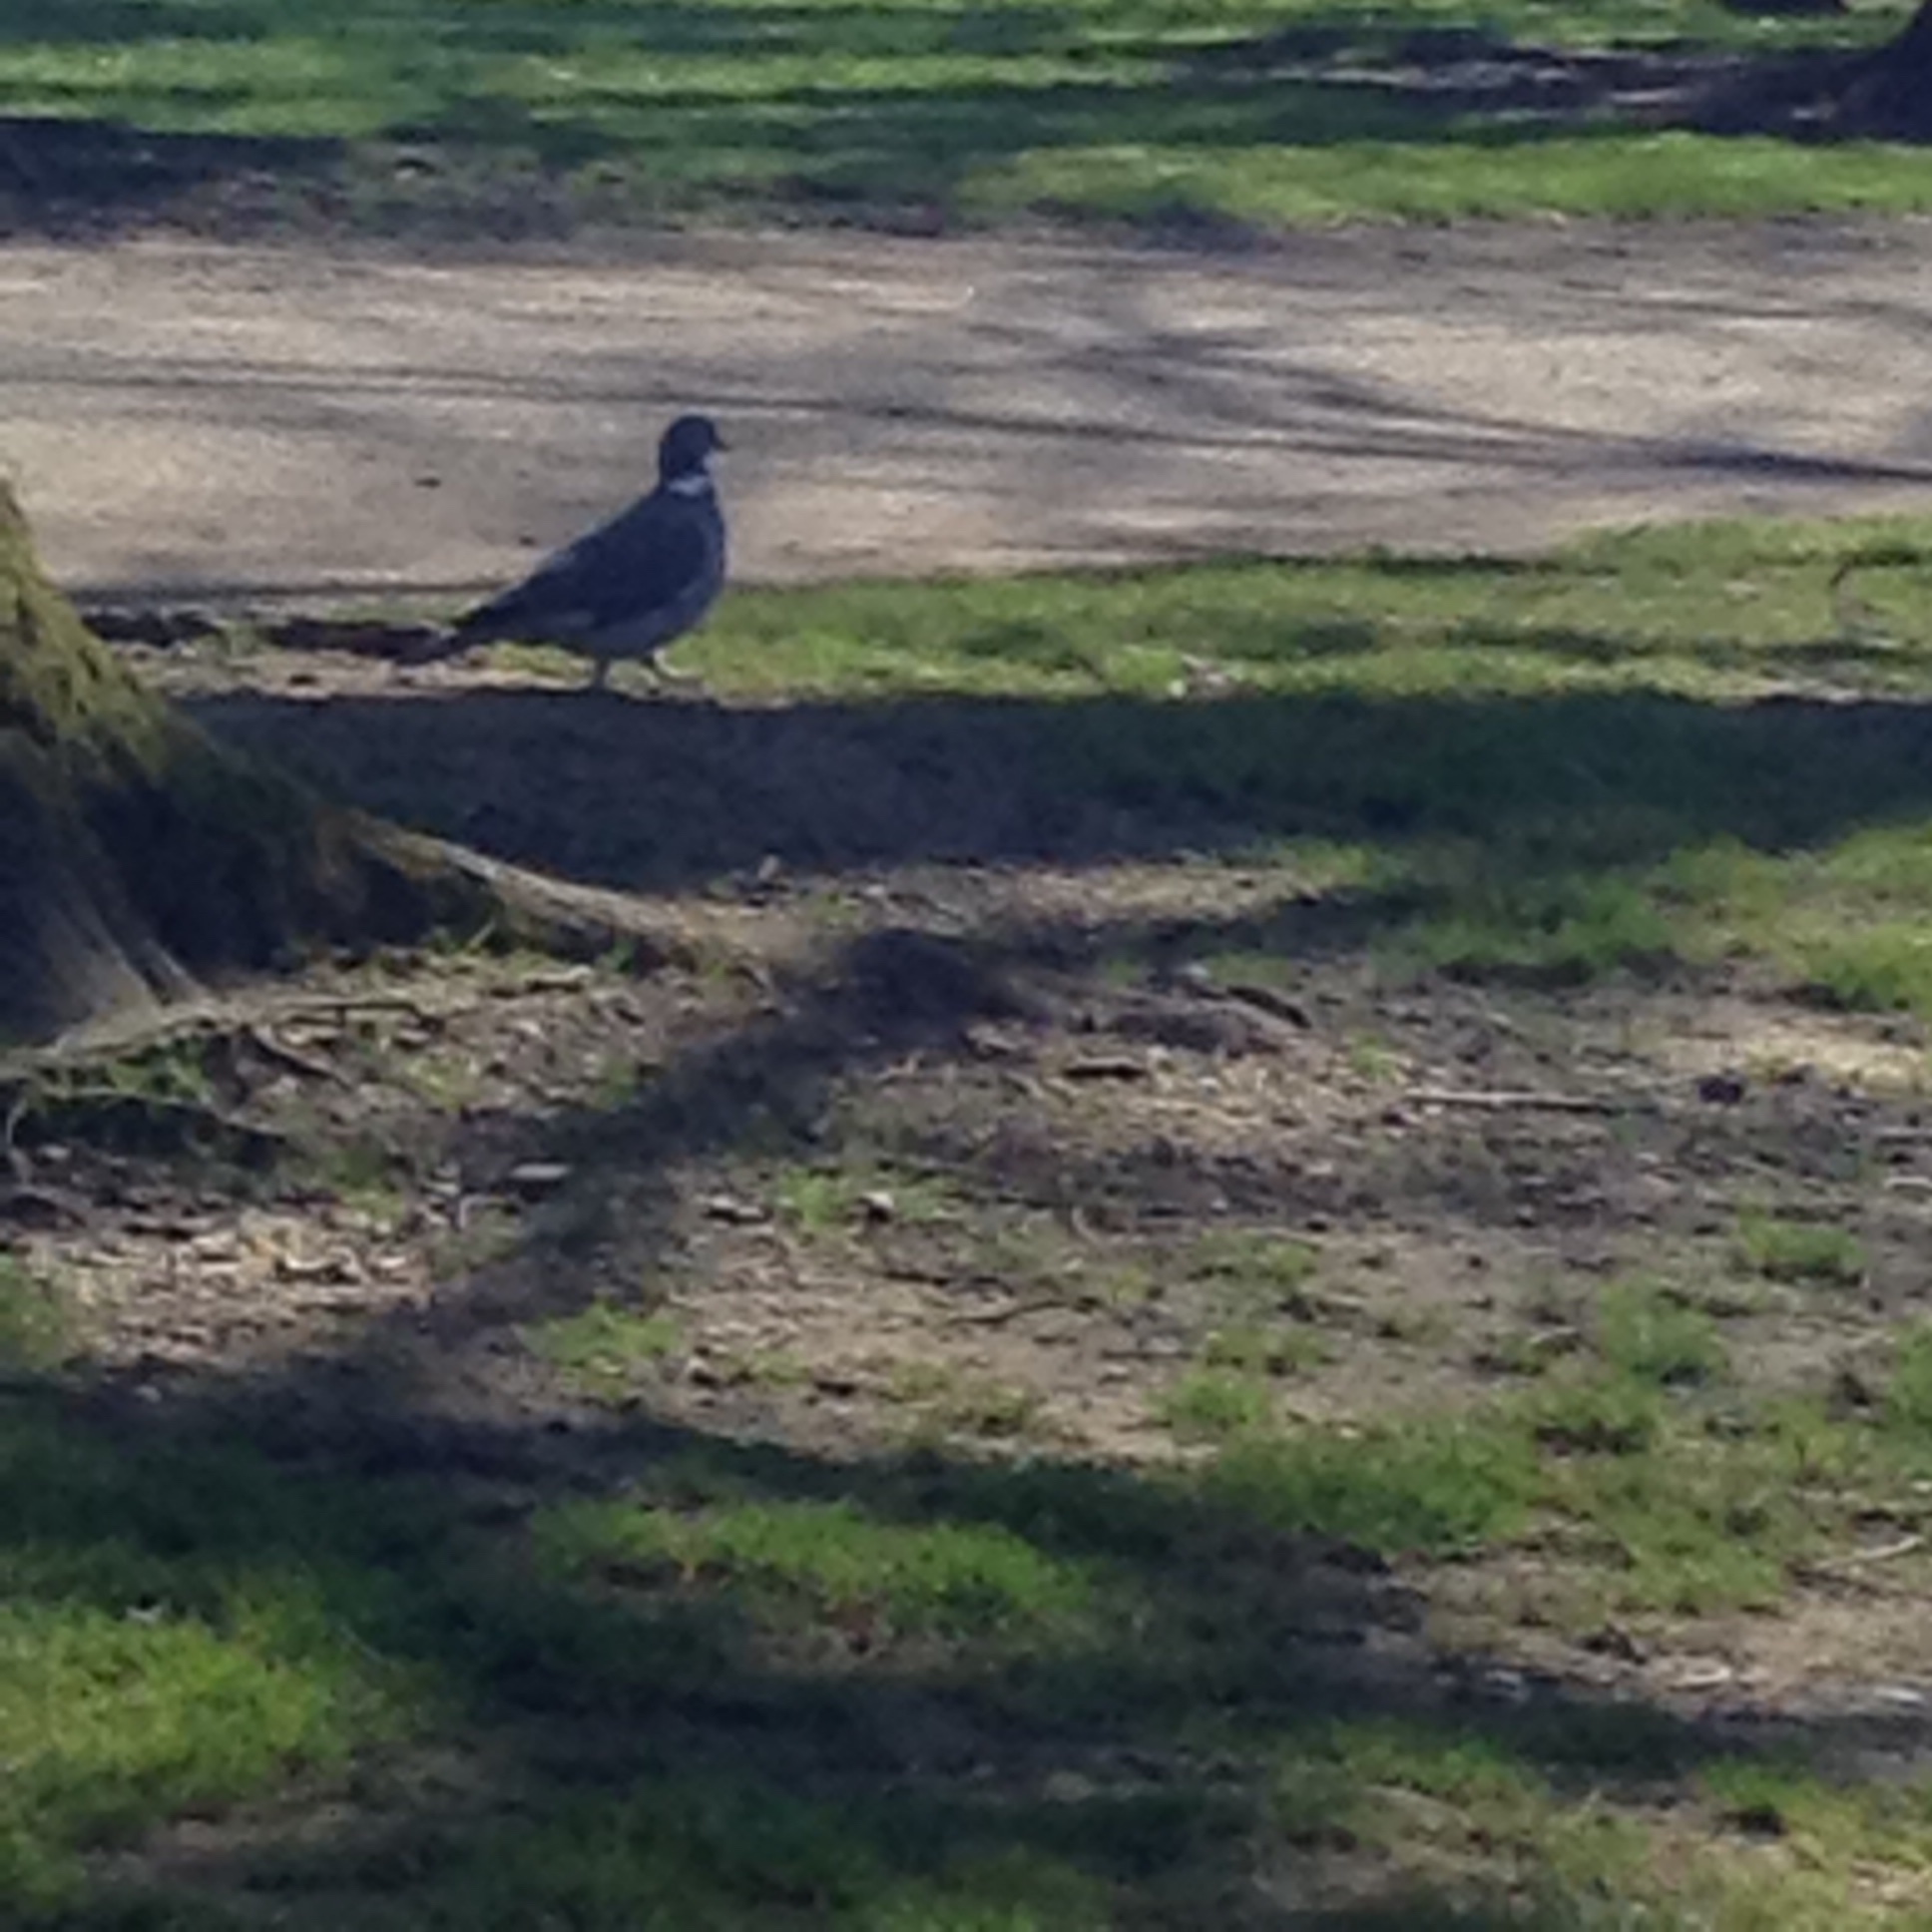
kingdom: Animalia
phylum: Chordata
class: Aves
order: Columbiformes
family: Columbidae
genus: Columba
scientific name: Columba palumbus
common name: Common wood pigeon
